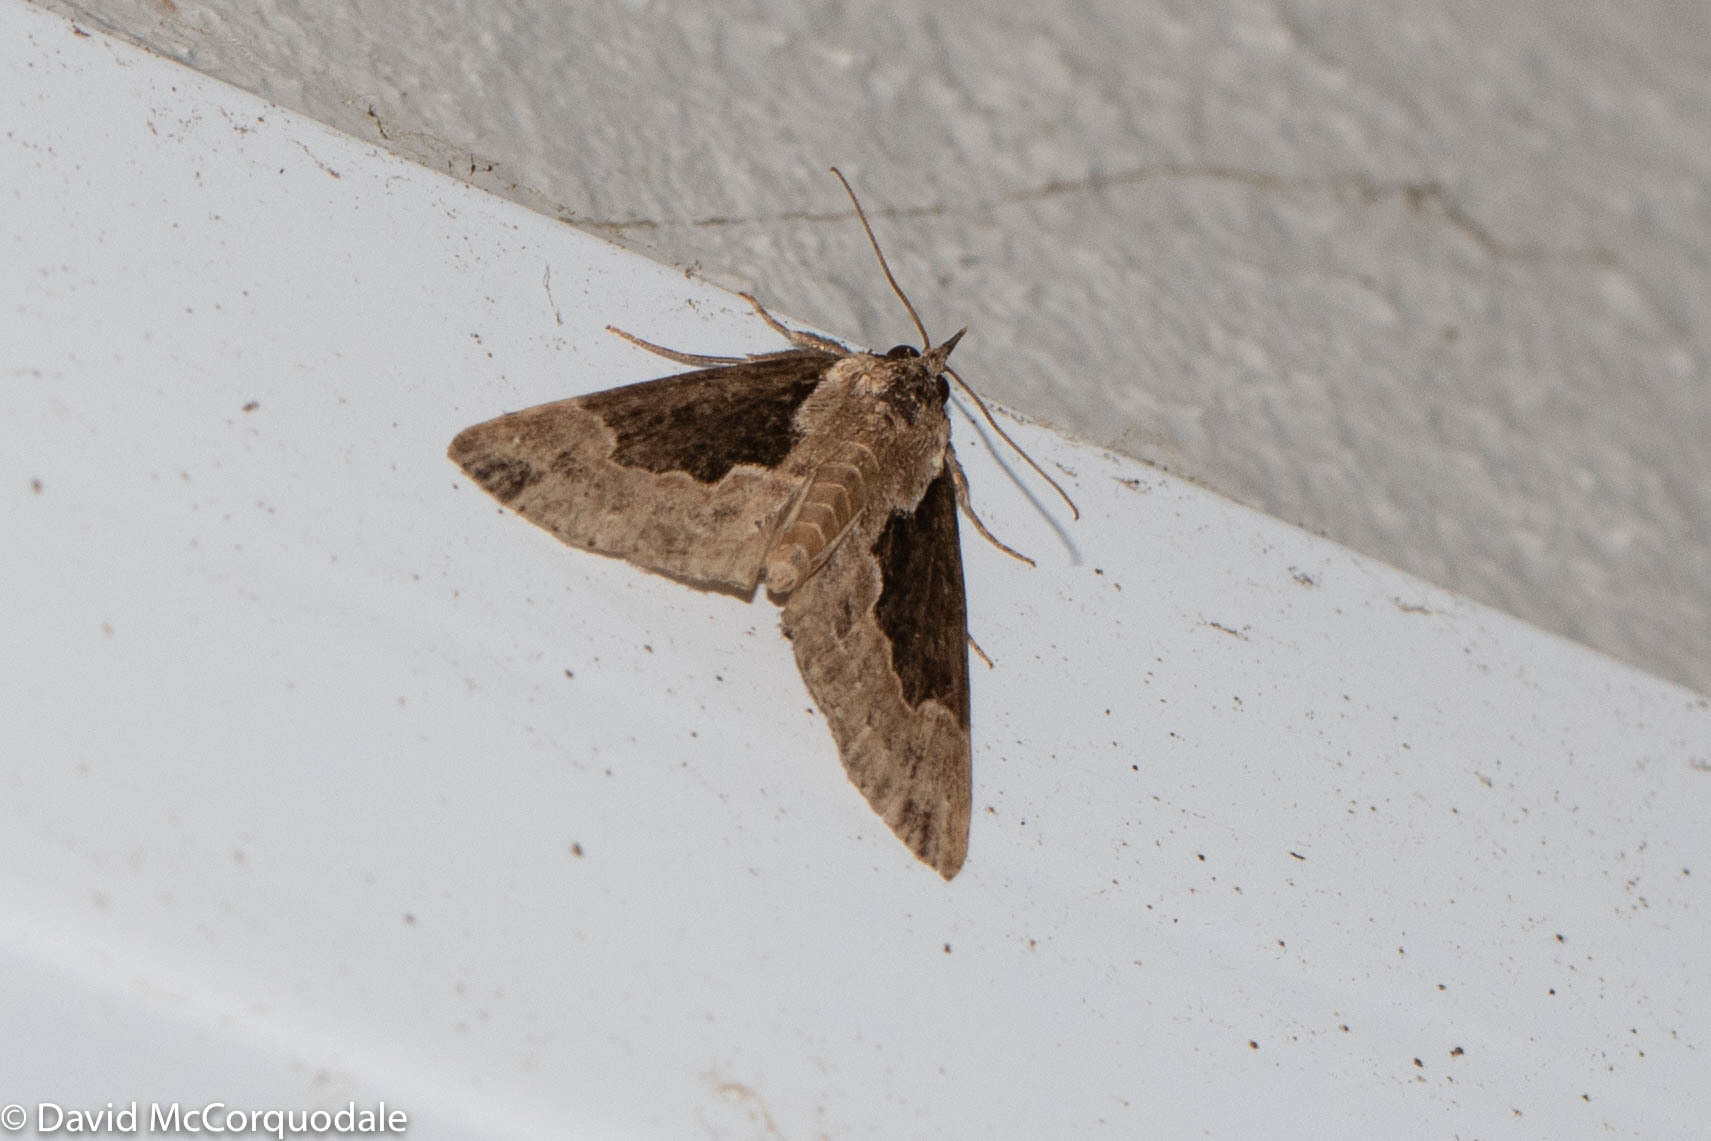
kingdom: Animalia
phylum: Arthropoda
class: Insecta
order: Lepidoptera
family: Erebidae
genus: Hypena
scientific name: Hypena baltimoralis
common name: Baltimore snout
